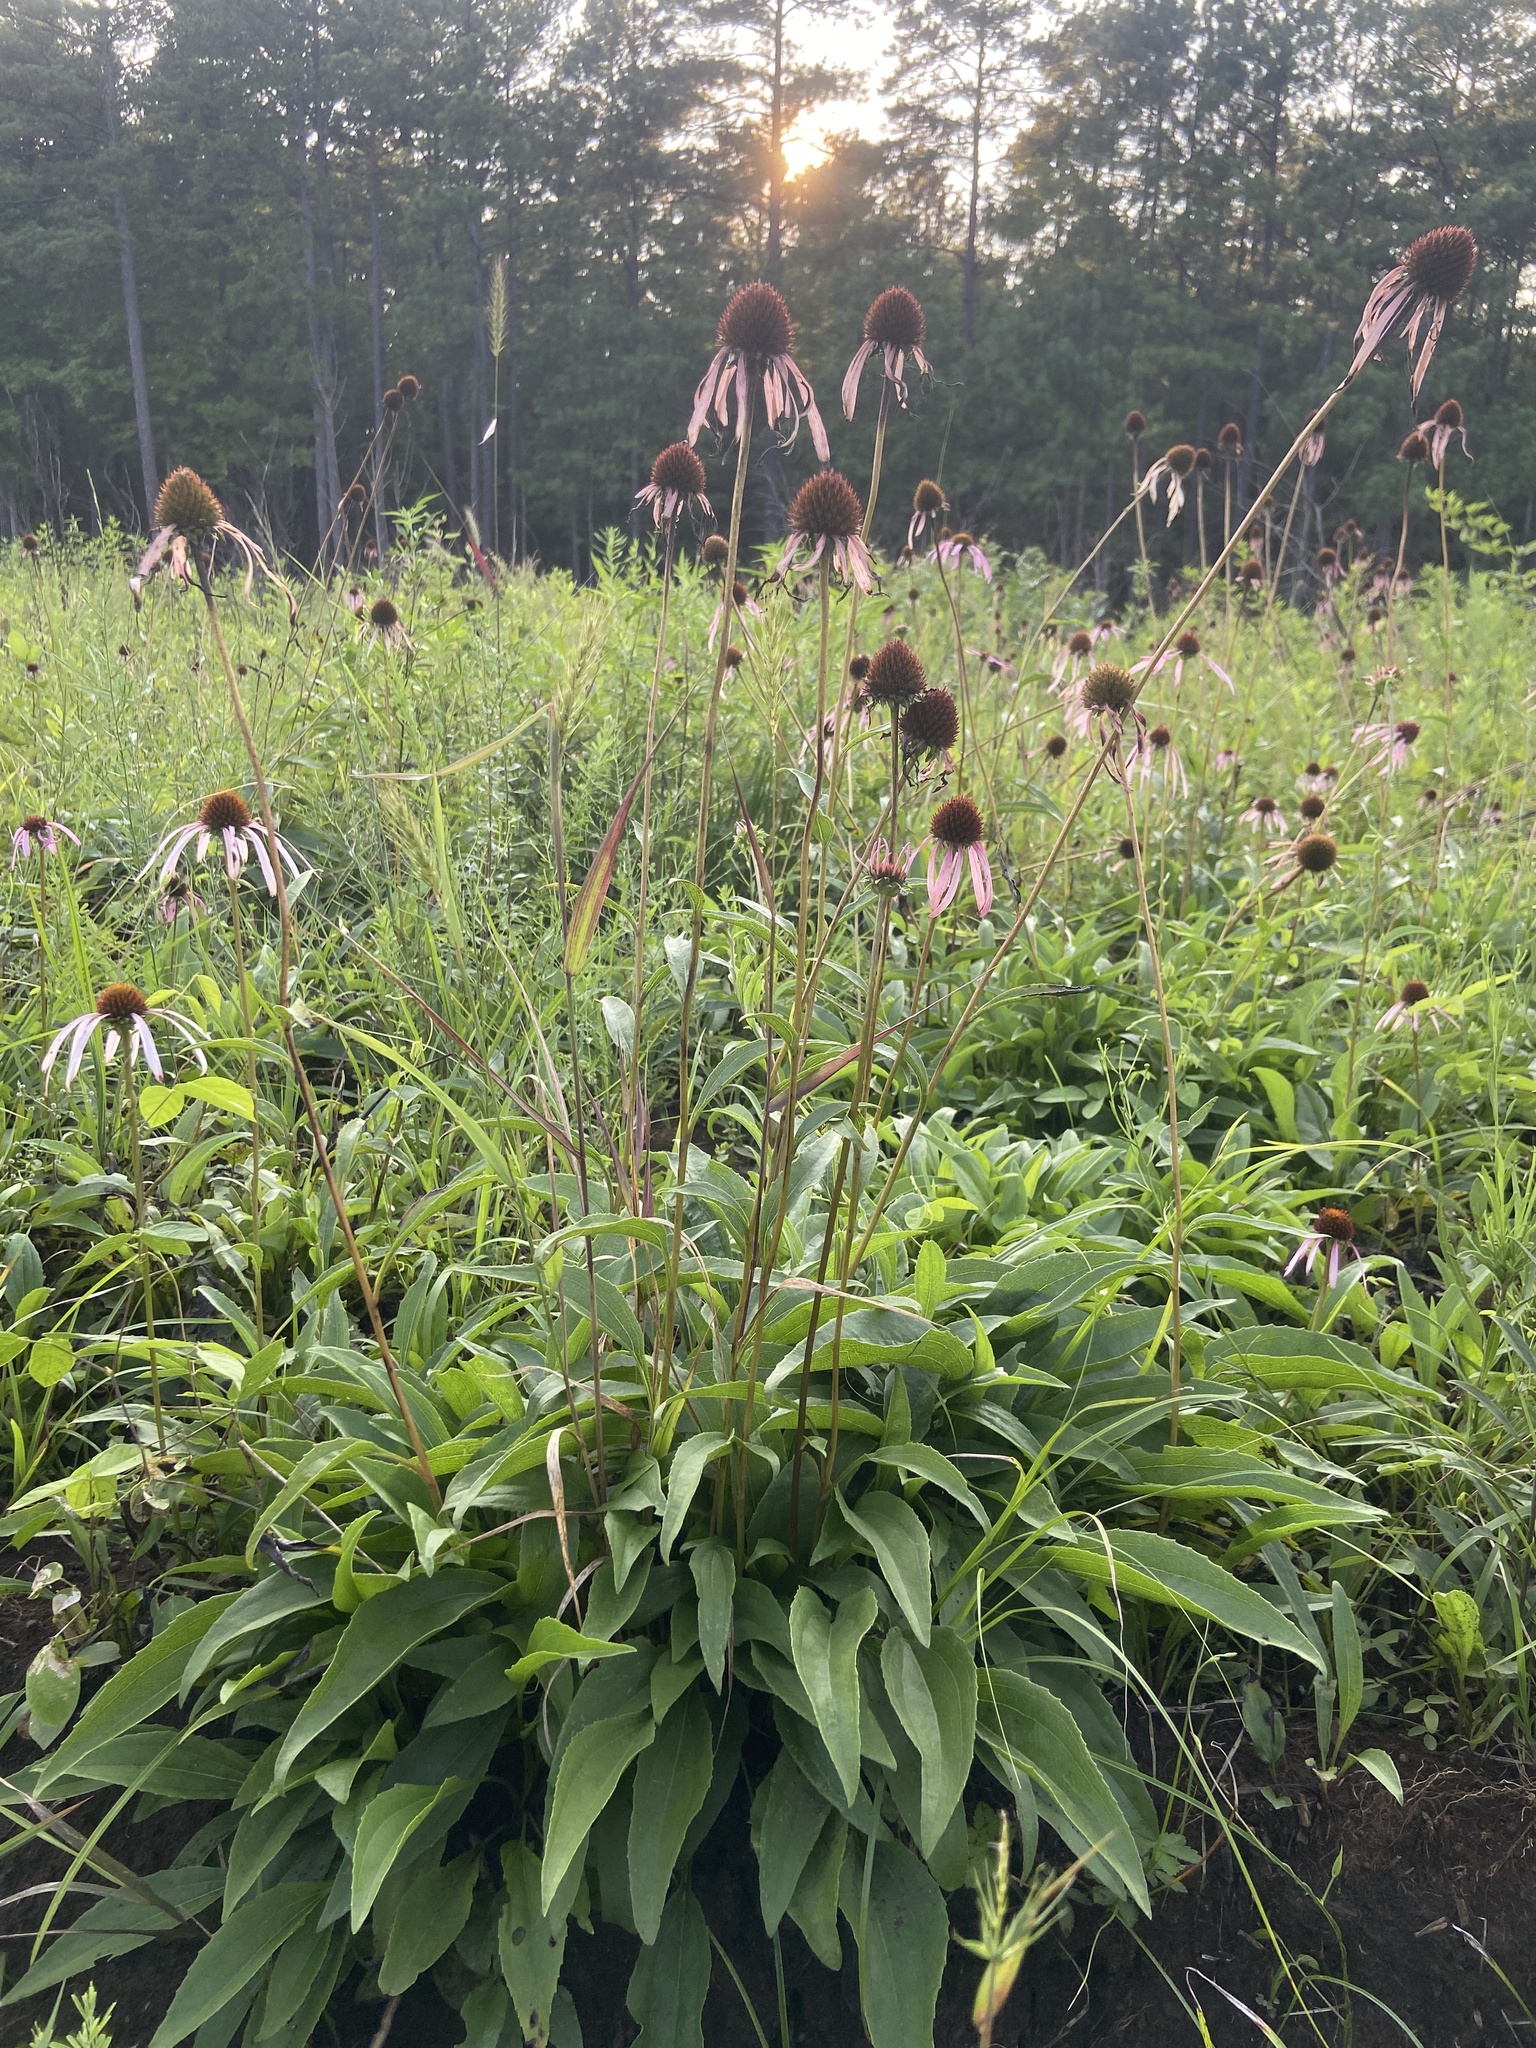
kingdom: Plantae
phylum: Tracheophyta
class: Magnoliopsida
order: Asterales
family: Asteraceae
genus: Echinacea
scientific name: Echinacea laevigata
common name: Smooth coneflower
